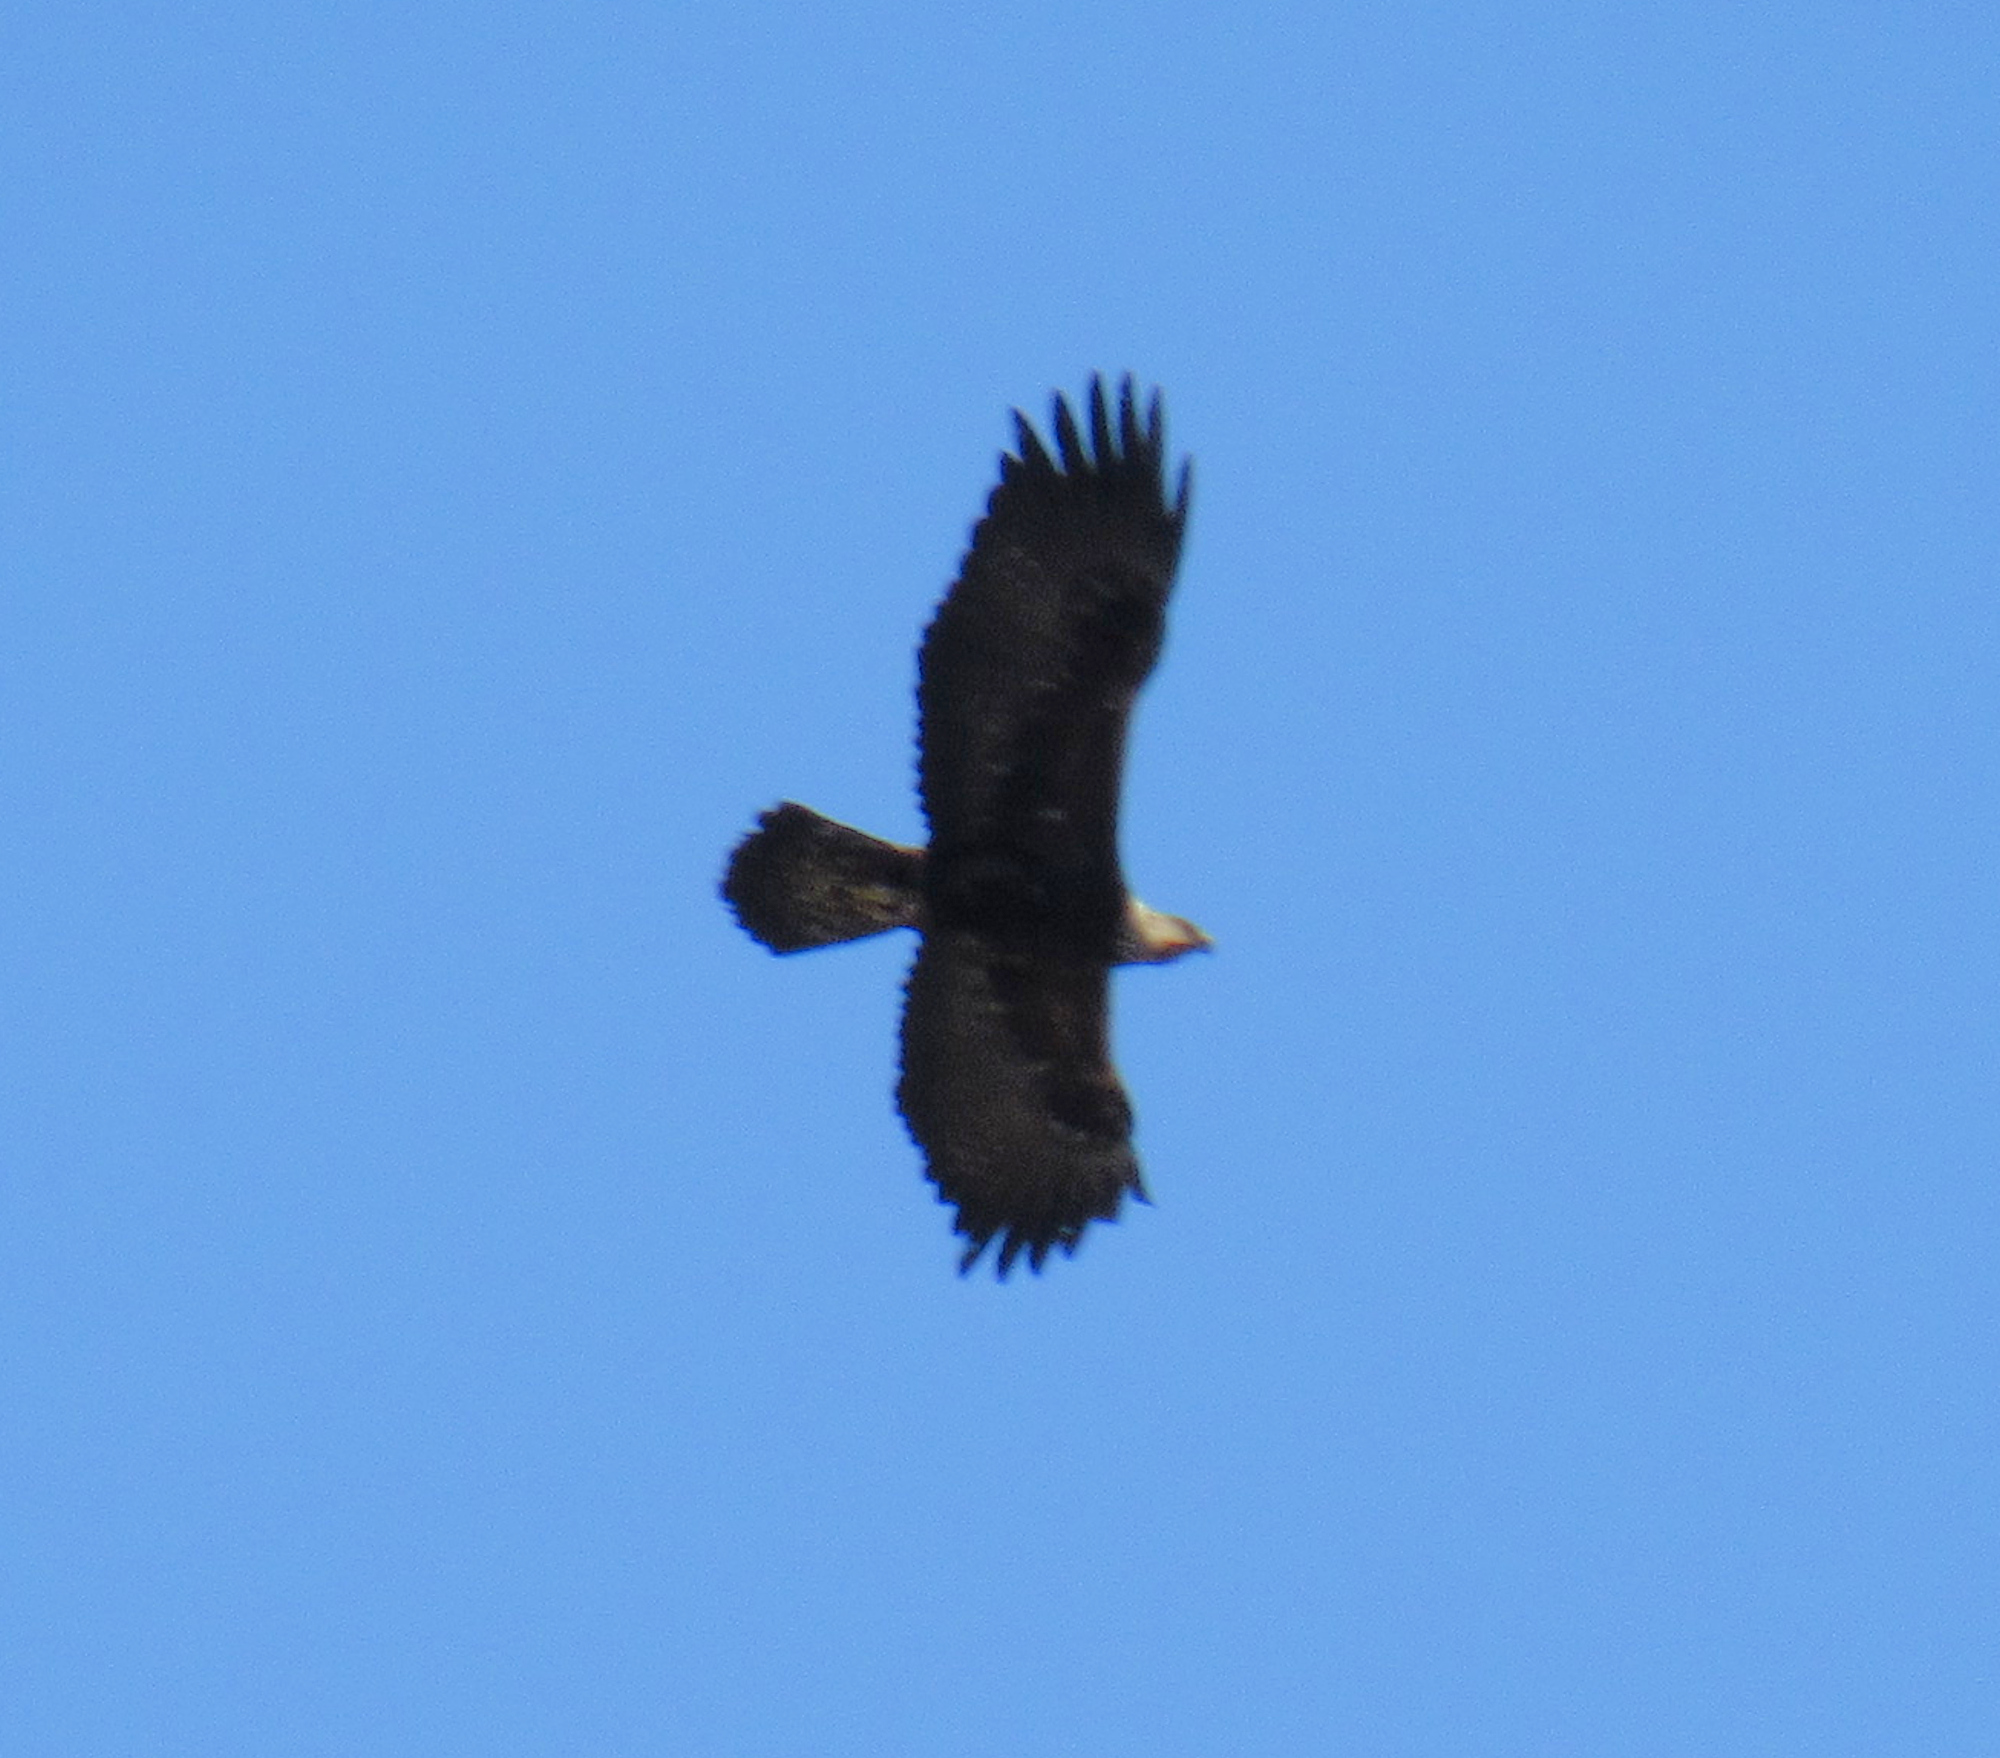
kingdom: Animalia
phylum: Chordata
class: Aves
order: Accipitriformes
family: Accipitridae
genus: Aquila
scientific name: Aquila chrysaetos
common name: Golden eagle
